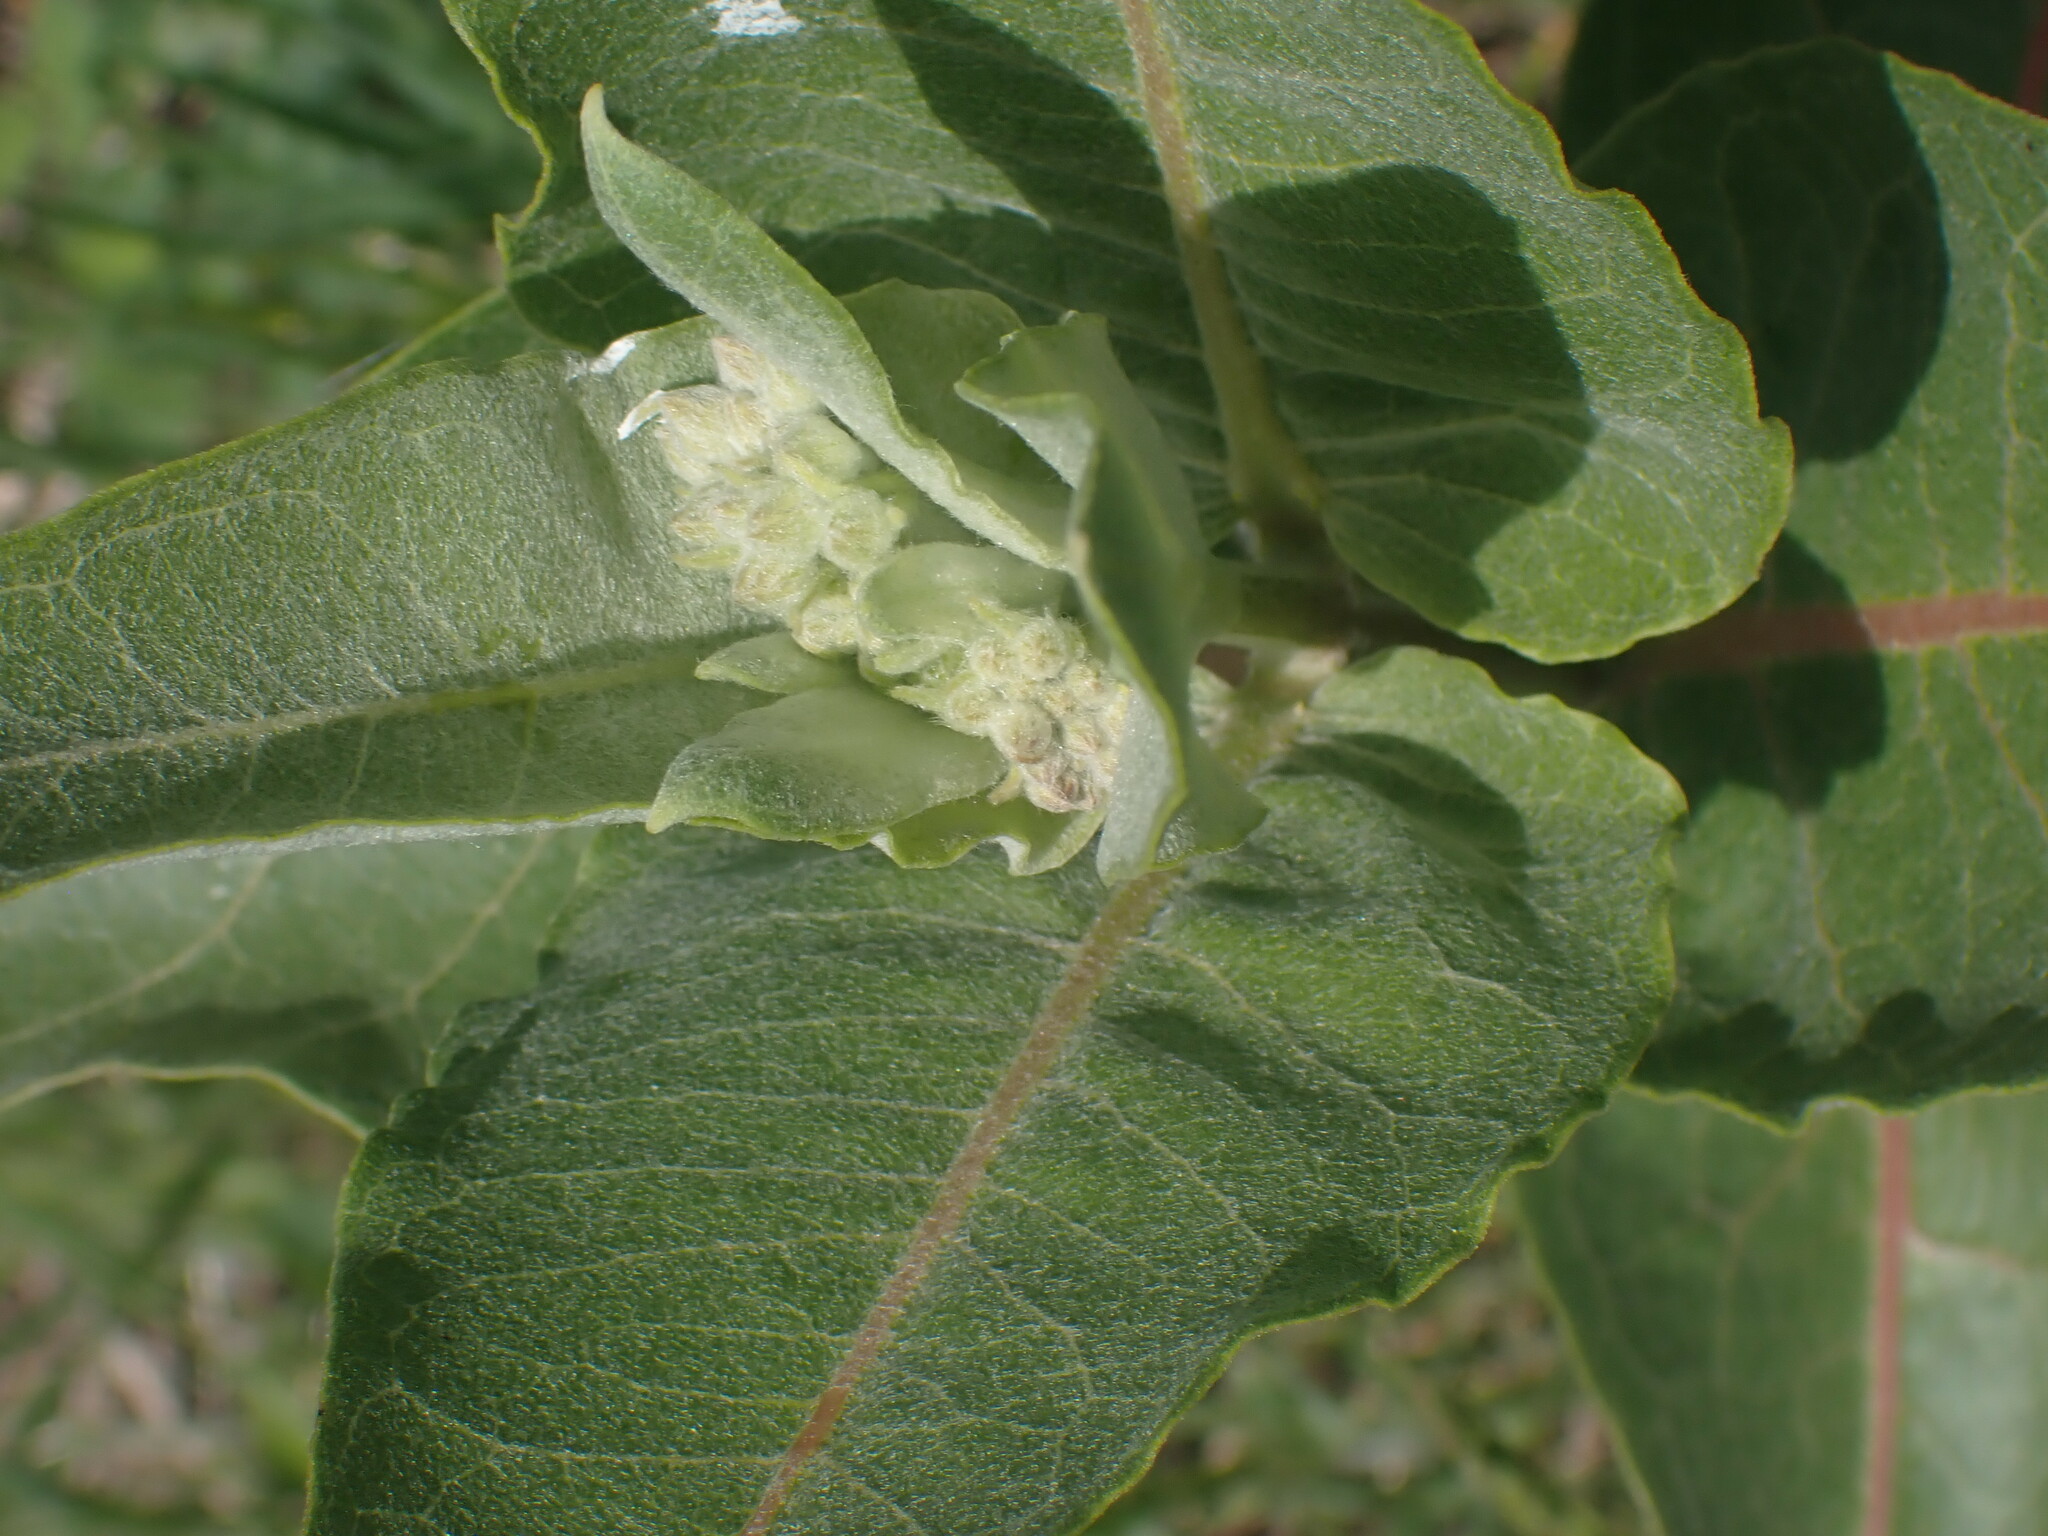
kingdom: Plantae
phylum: Tracheophyta
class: Magnoliopsida
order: Gentianales
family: Apocynaceae
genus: Asclepias
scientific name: Asclepias speciosa
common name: Showy milkweed
